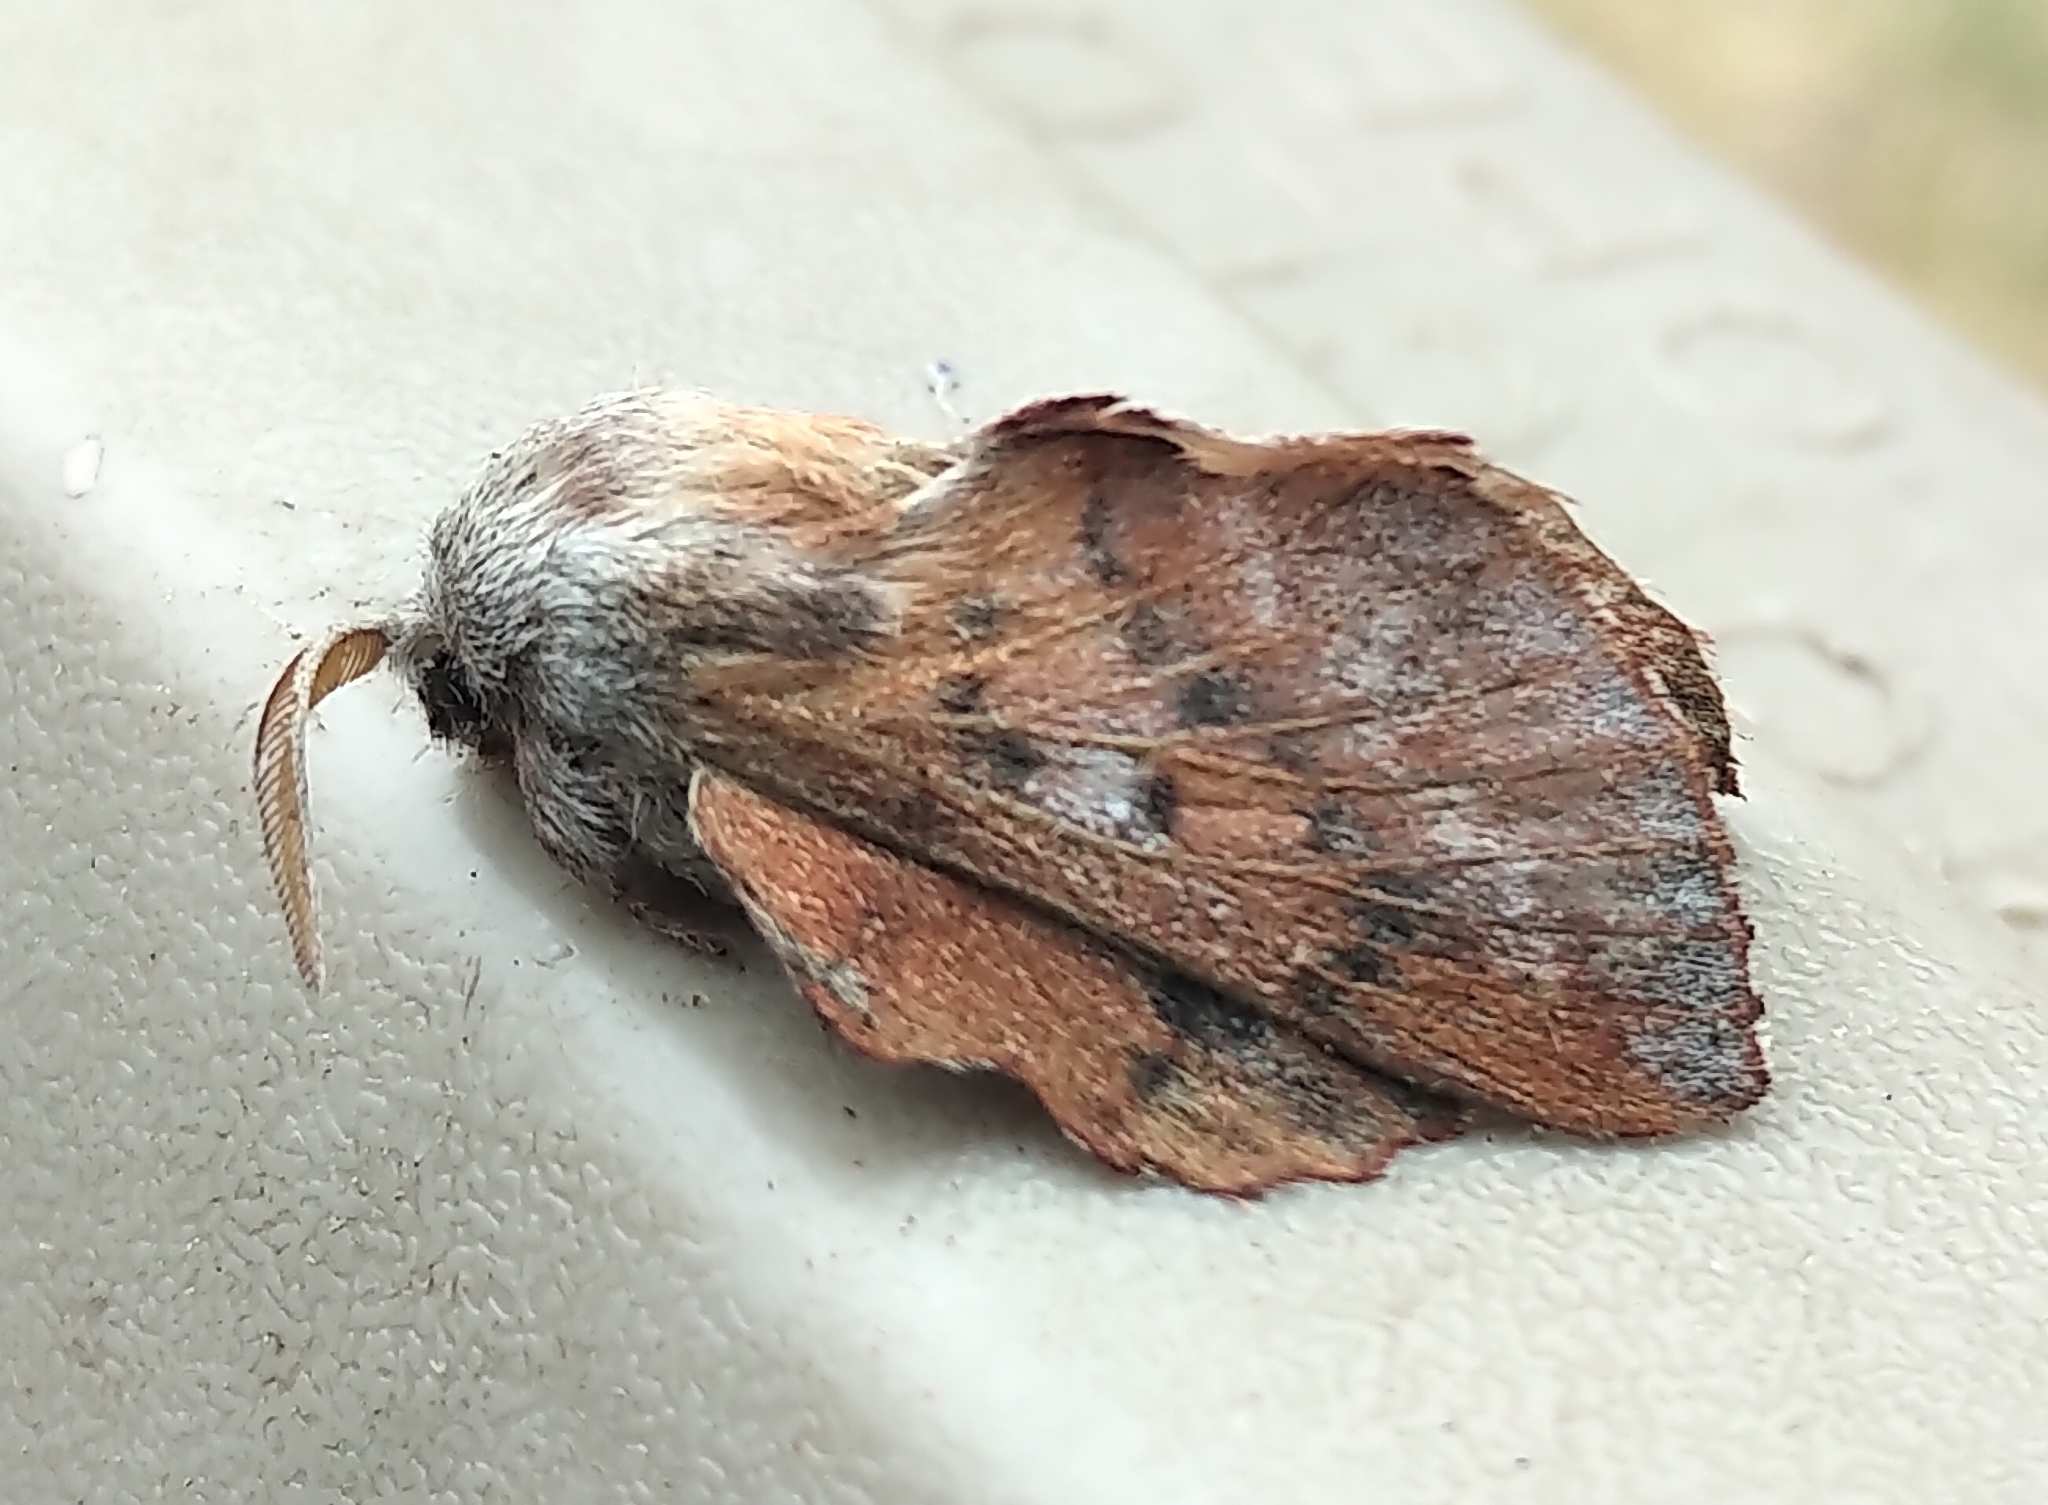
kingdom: Animalia
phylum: Arthropoda
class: Insecta
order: Lepidoptera
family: Lasiocampidae
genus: Phyllodesma
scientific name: Phyllodesma americana
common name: American lappet moth
